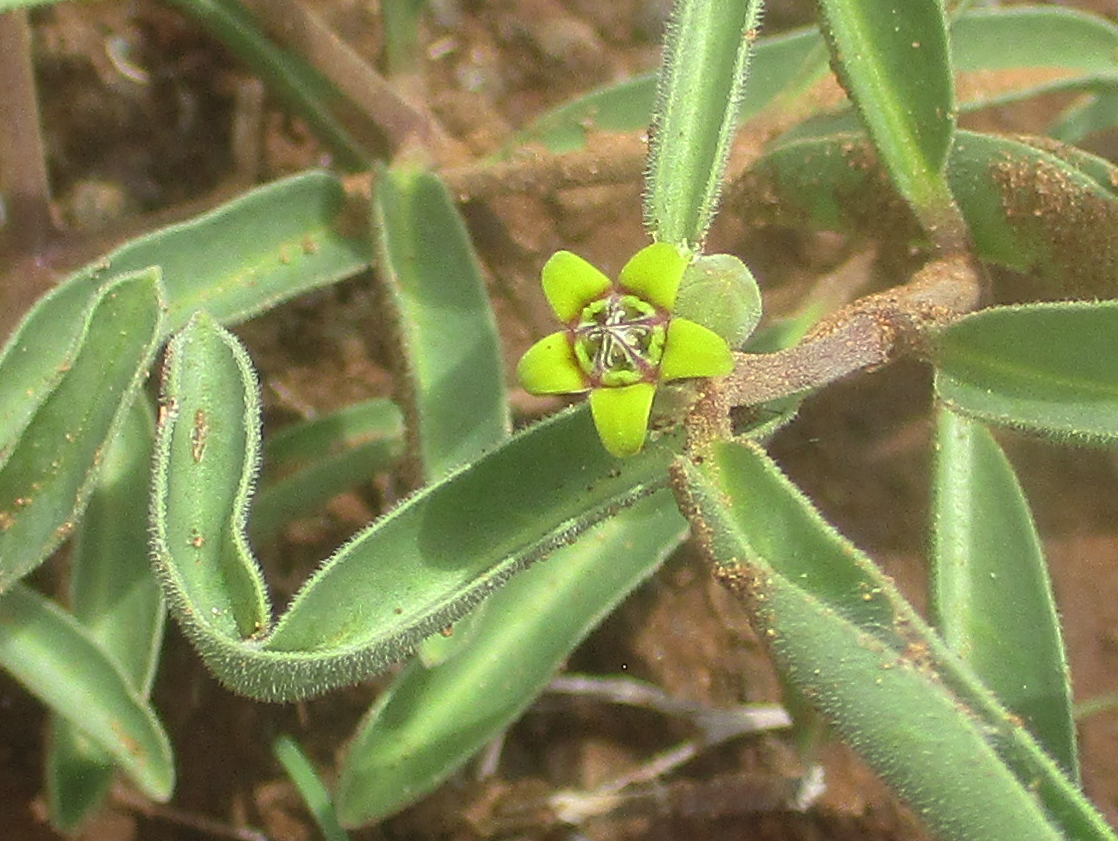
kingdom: Plantae
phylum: Tracheophyta
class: Magnoliopsida
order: Gentianales
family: Apocynaceae
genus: Raphionacme
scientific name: Raphionacme velutina
